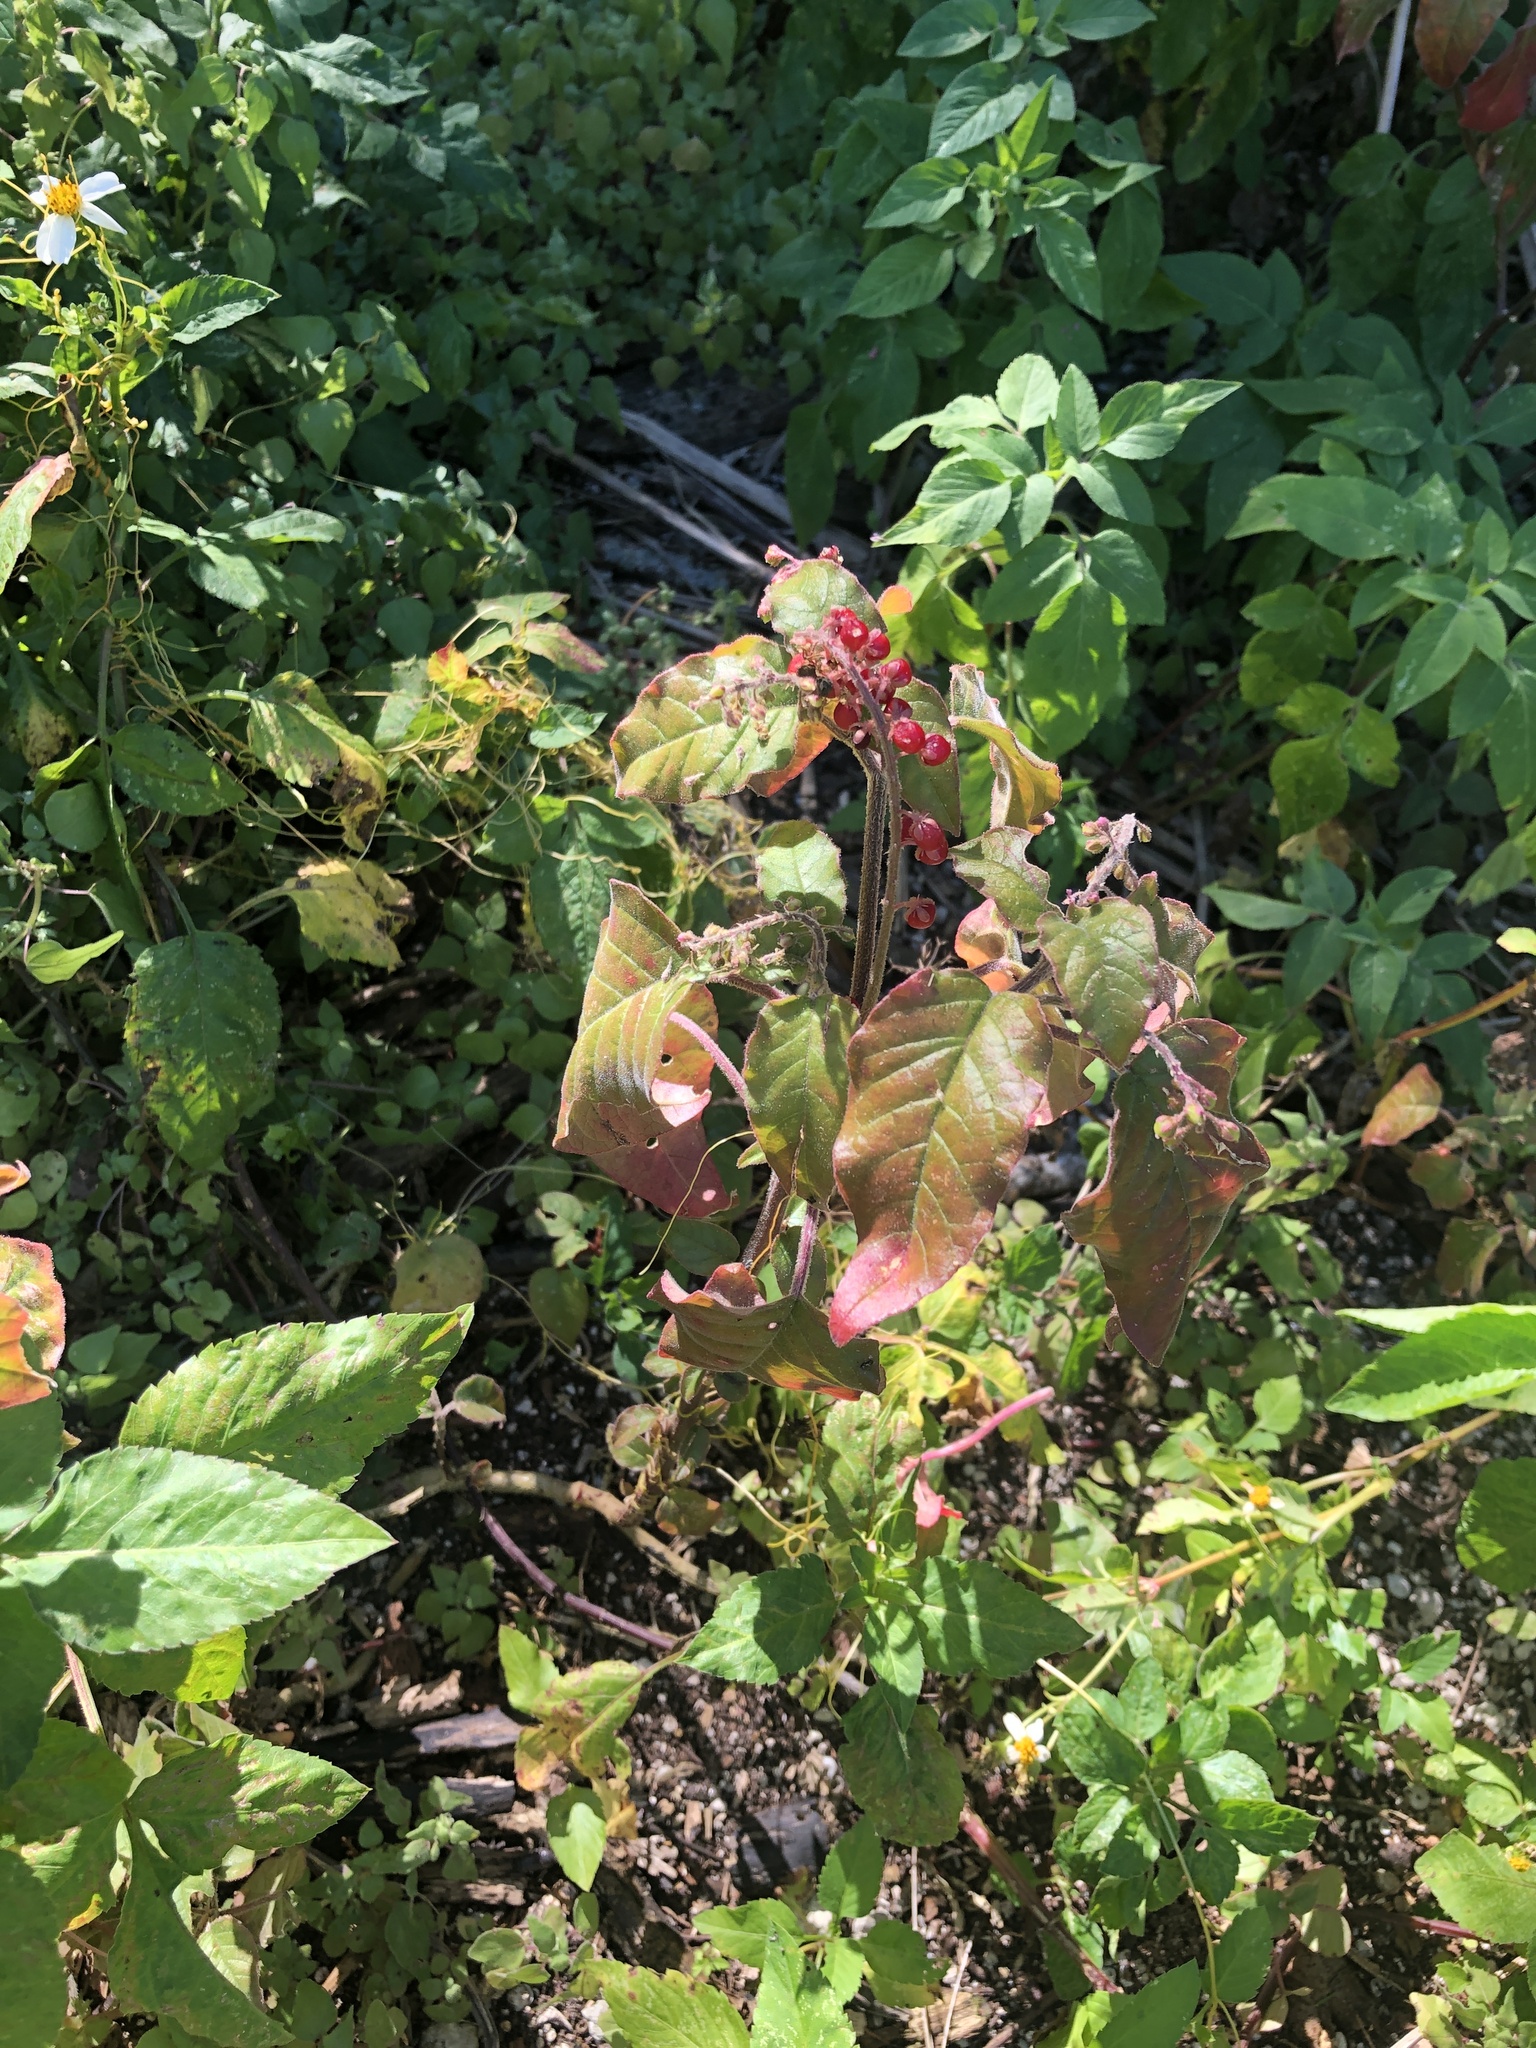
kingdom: Plantae
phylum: Tracheophyta
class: Magnoliopsida
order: Caryophyllales
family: Phytolaccaceae
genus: Rivina
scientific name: Rivina humilis
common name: Rougeplant
